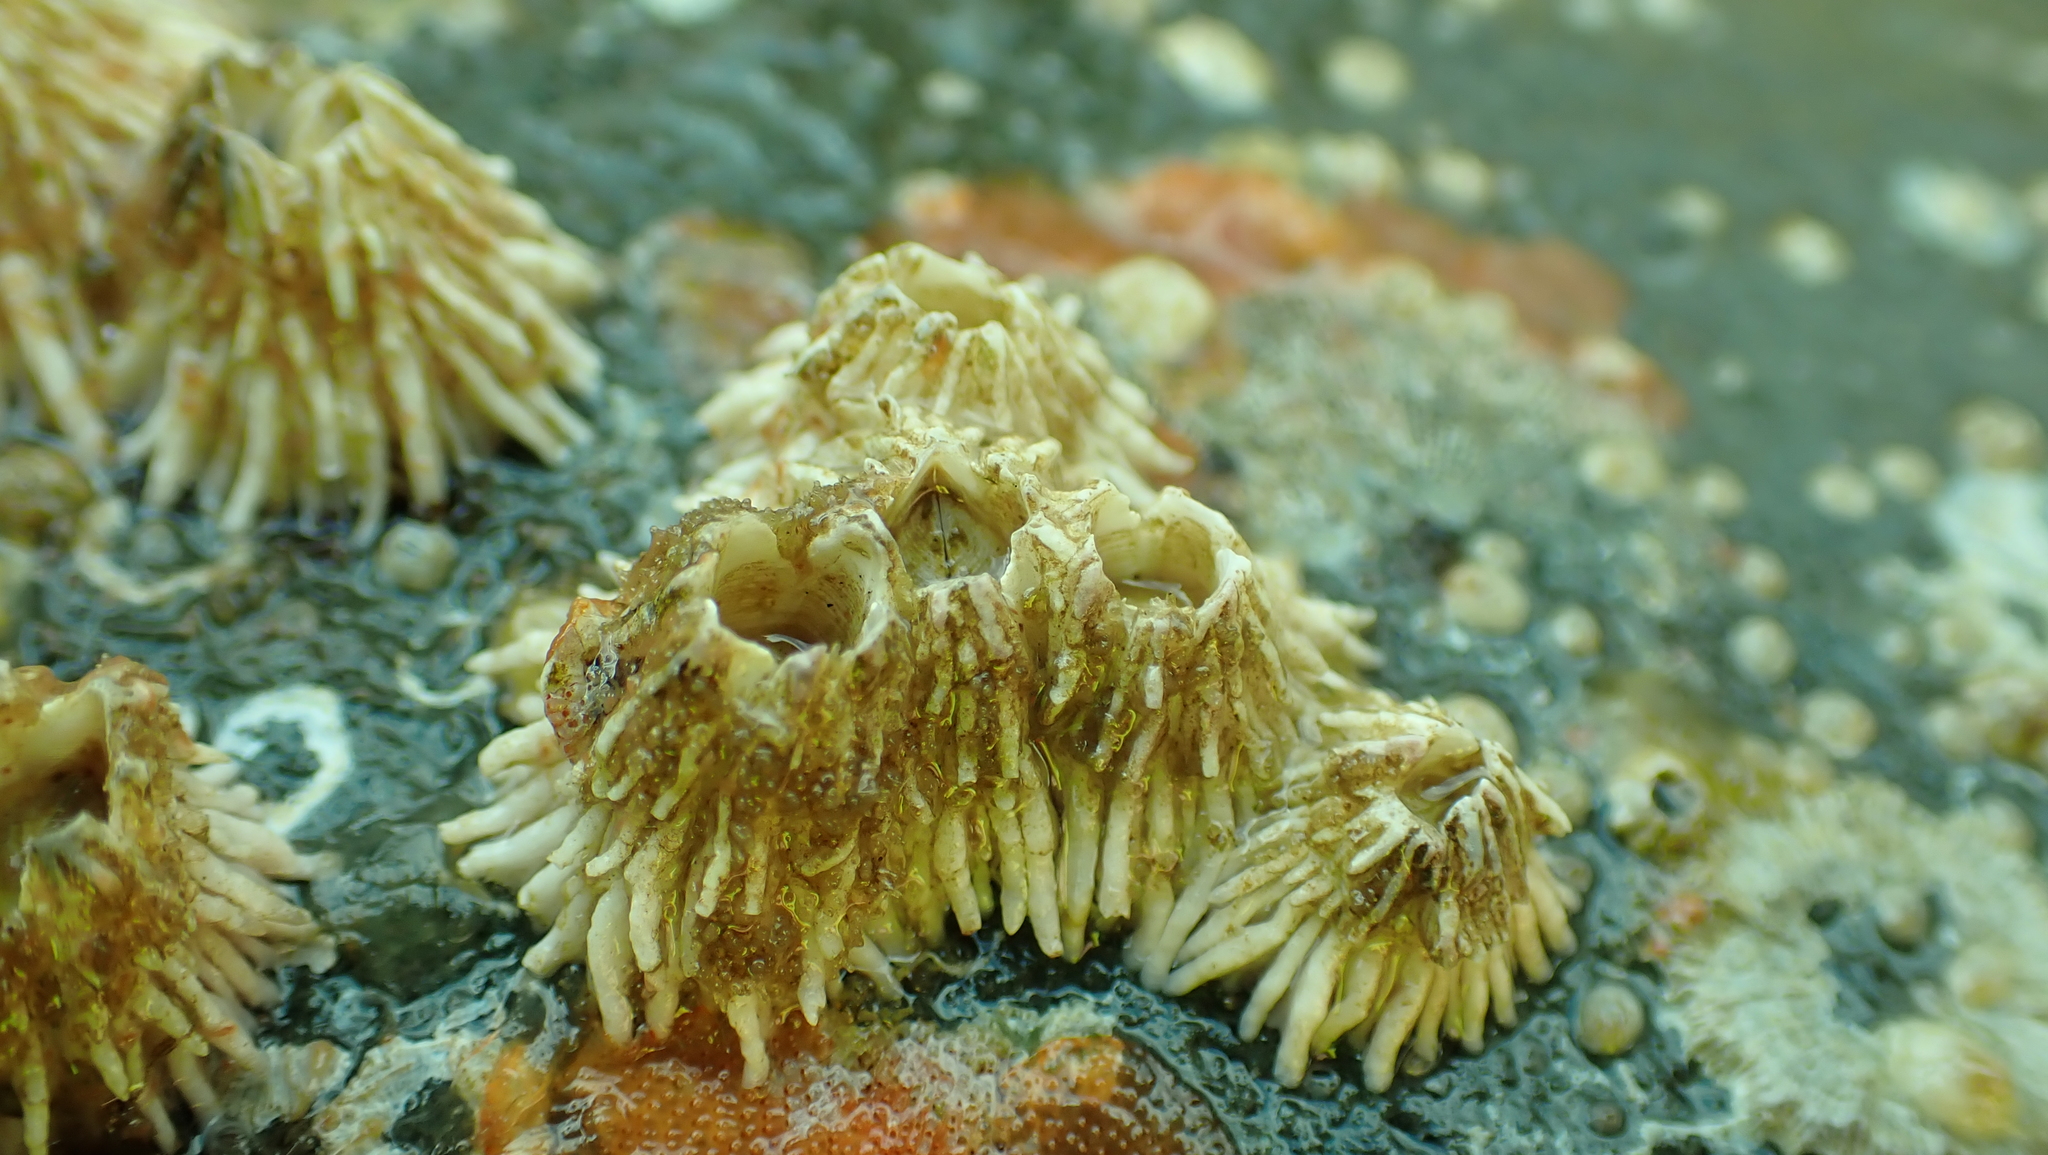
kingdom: Animalia
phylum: Arthropoda
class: Maxillopoda
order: Sessilia
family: Archaeobalanidae
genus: Semibalanus
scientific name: Semibalanus cariosus
